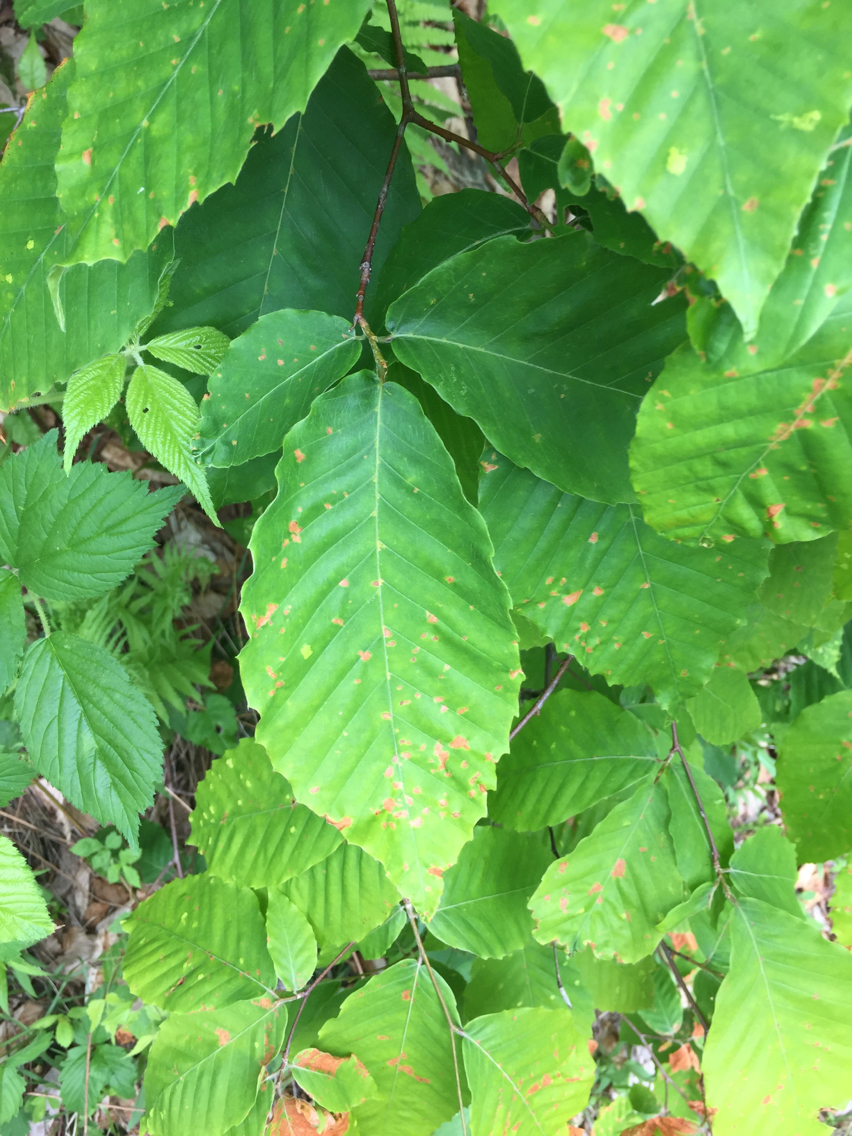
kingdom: Plantae
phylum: Tracheophyta
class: Magnoliopsida
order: Fagales
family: Fagaceae
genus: Fagus
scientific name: Fagus grandifolia
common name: American beech
